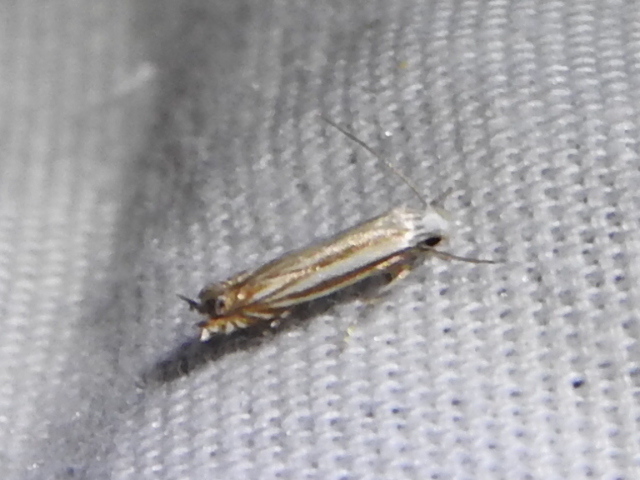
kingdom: Animalia
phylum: Arthropoda
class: Insecta
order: Lepidoptera
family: Gelechiidae
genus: Polyhymno
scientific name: Polyhymno luteostrigella
